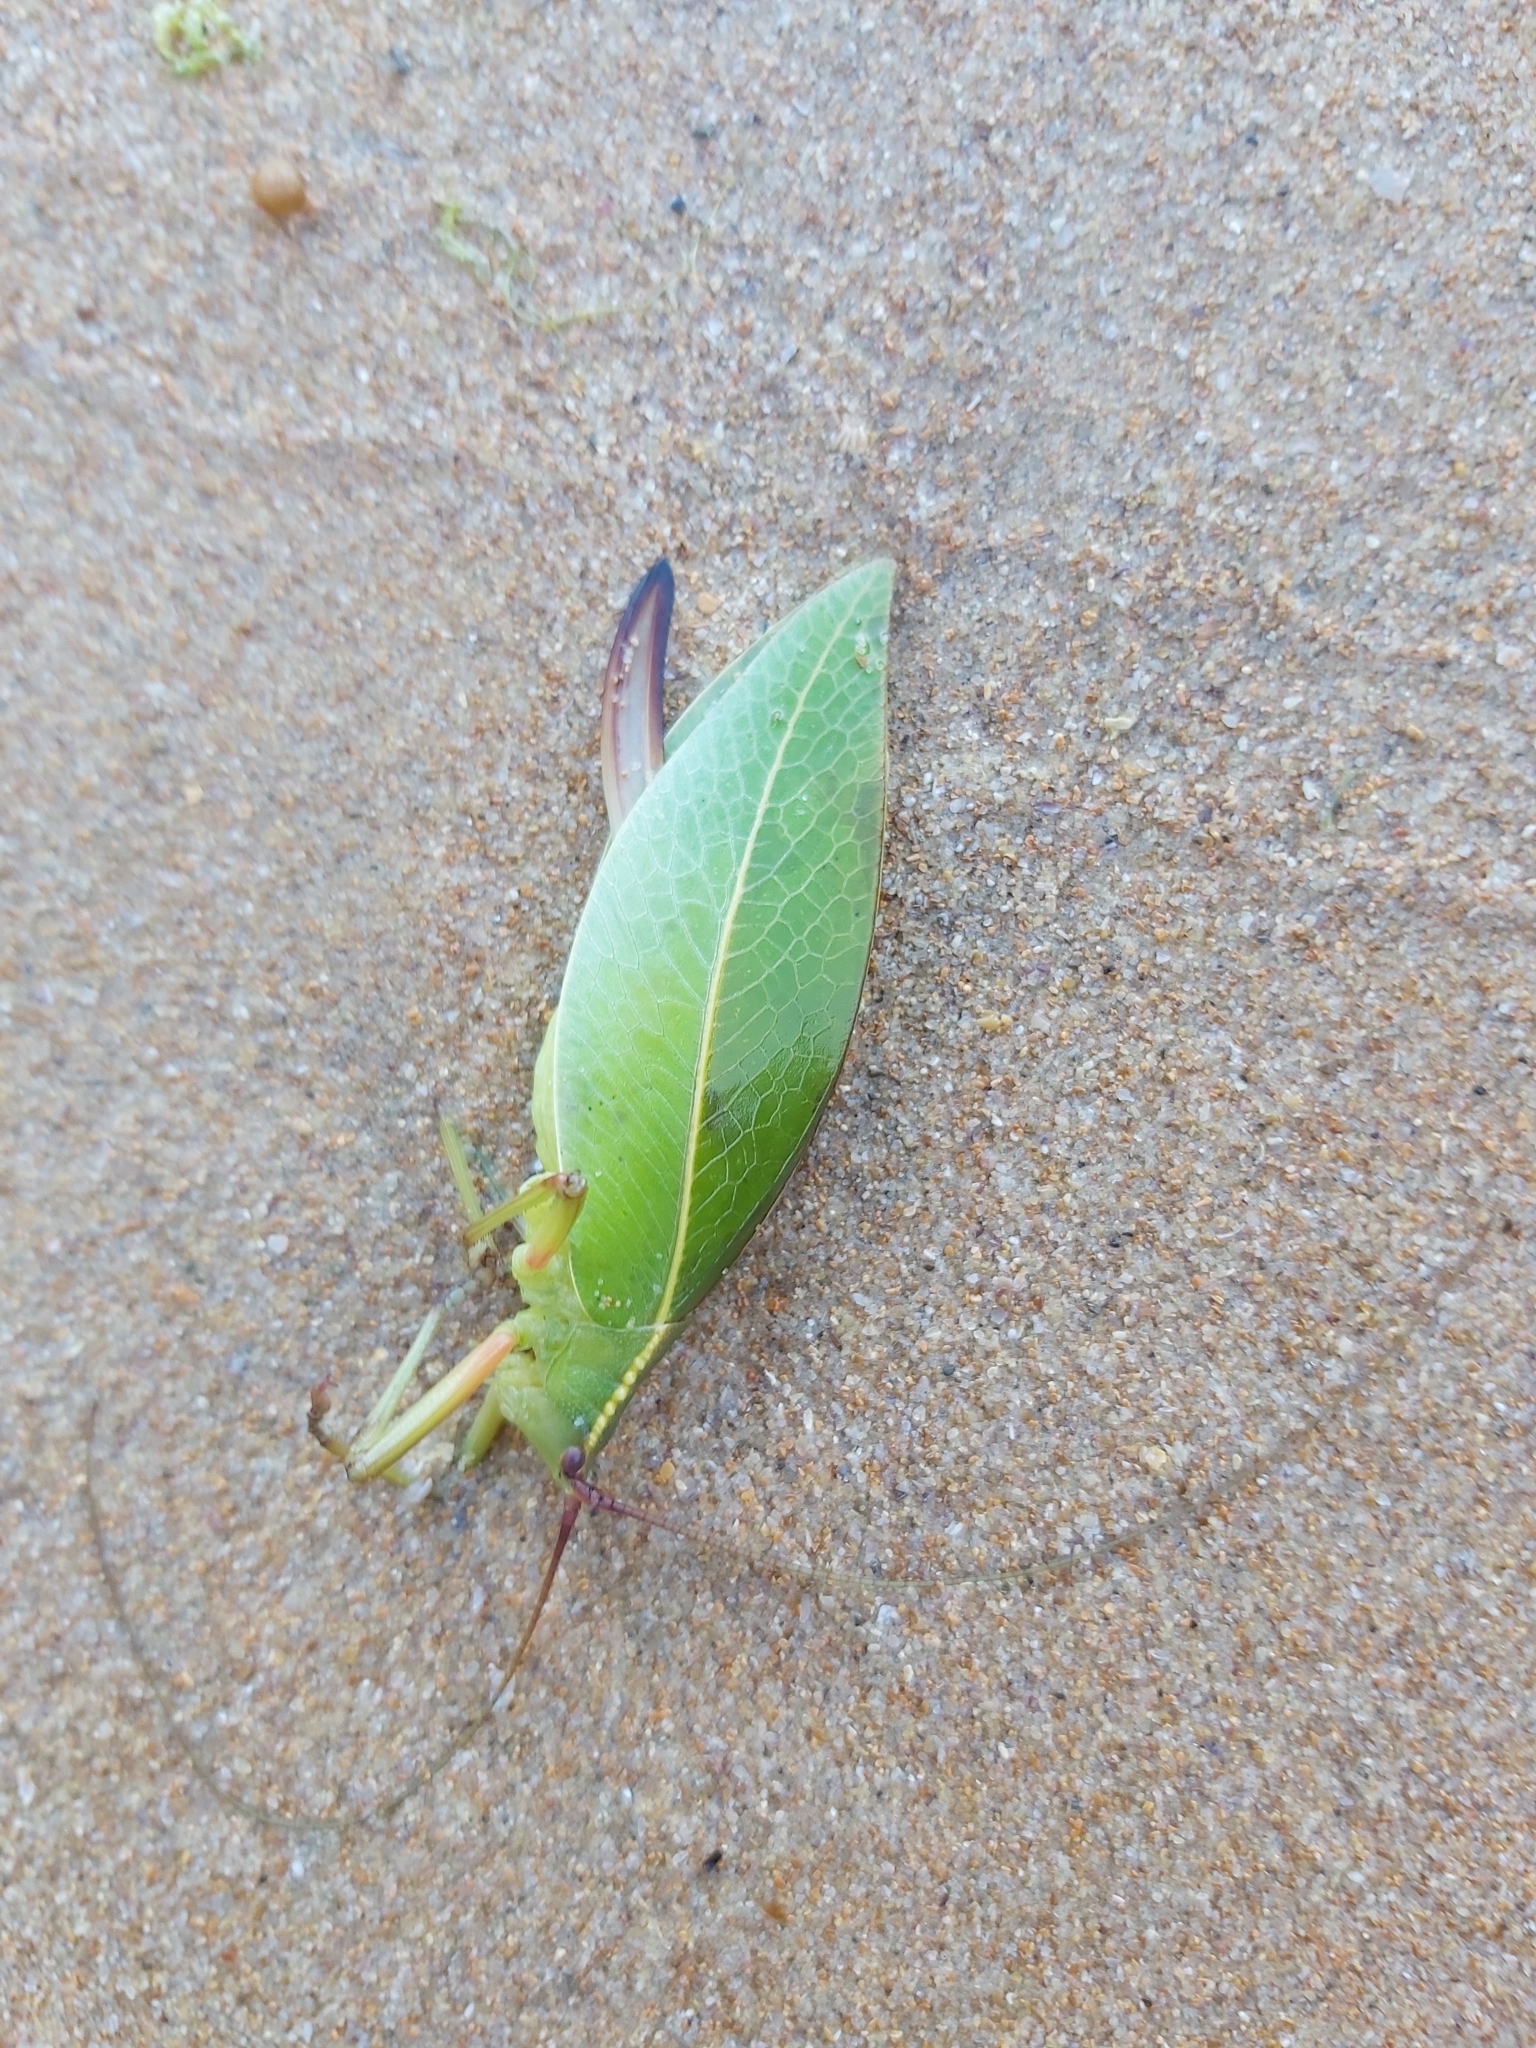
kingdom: Animalia
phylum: Arthropoda
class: Insecta
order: Orthoptera
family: Tettigoniidae
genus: Narea
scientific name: Narea elongata
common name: Sharp-winged snub-nose
